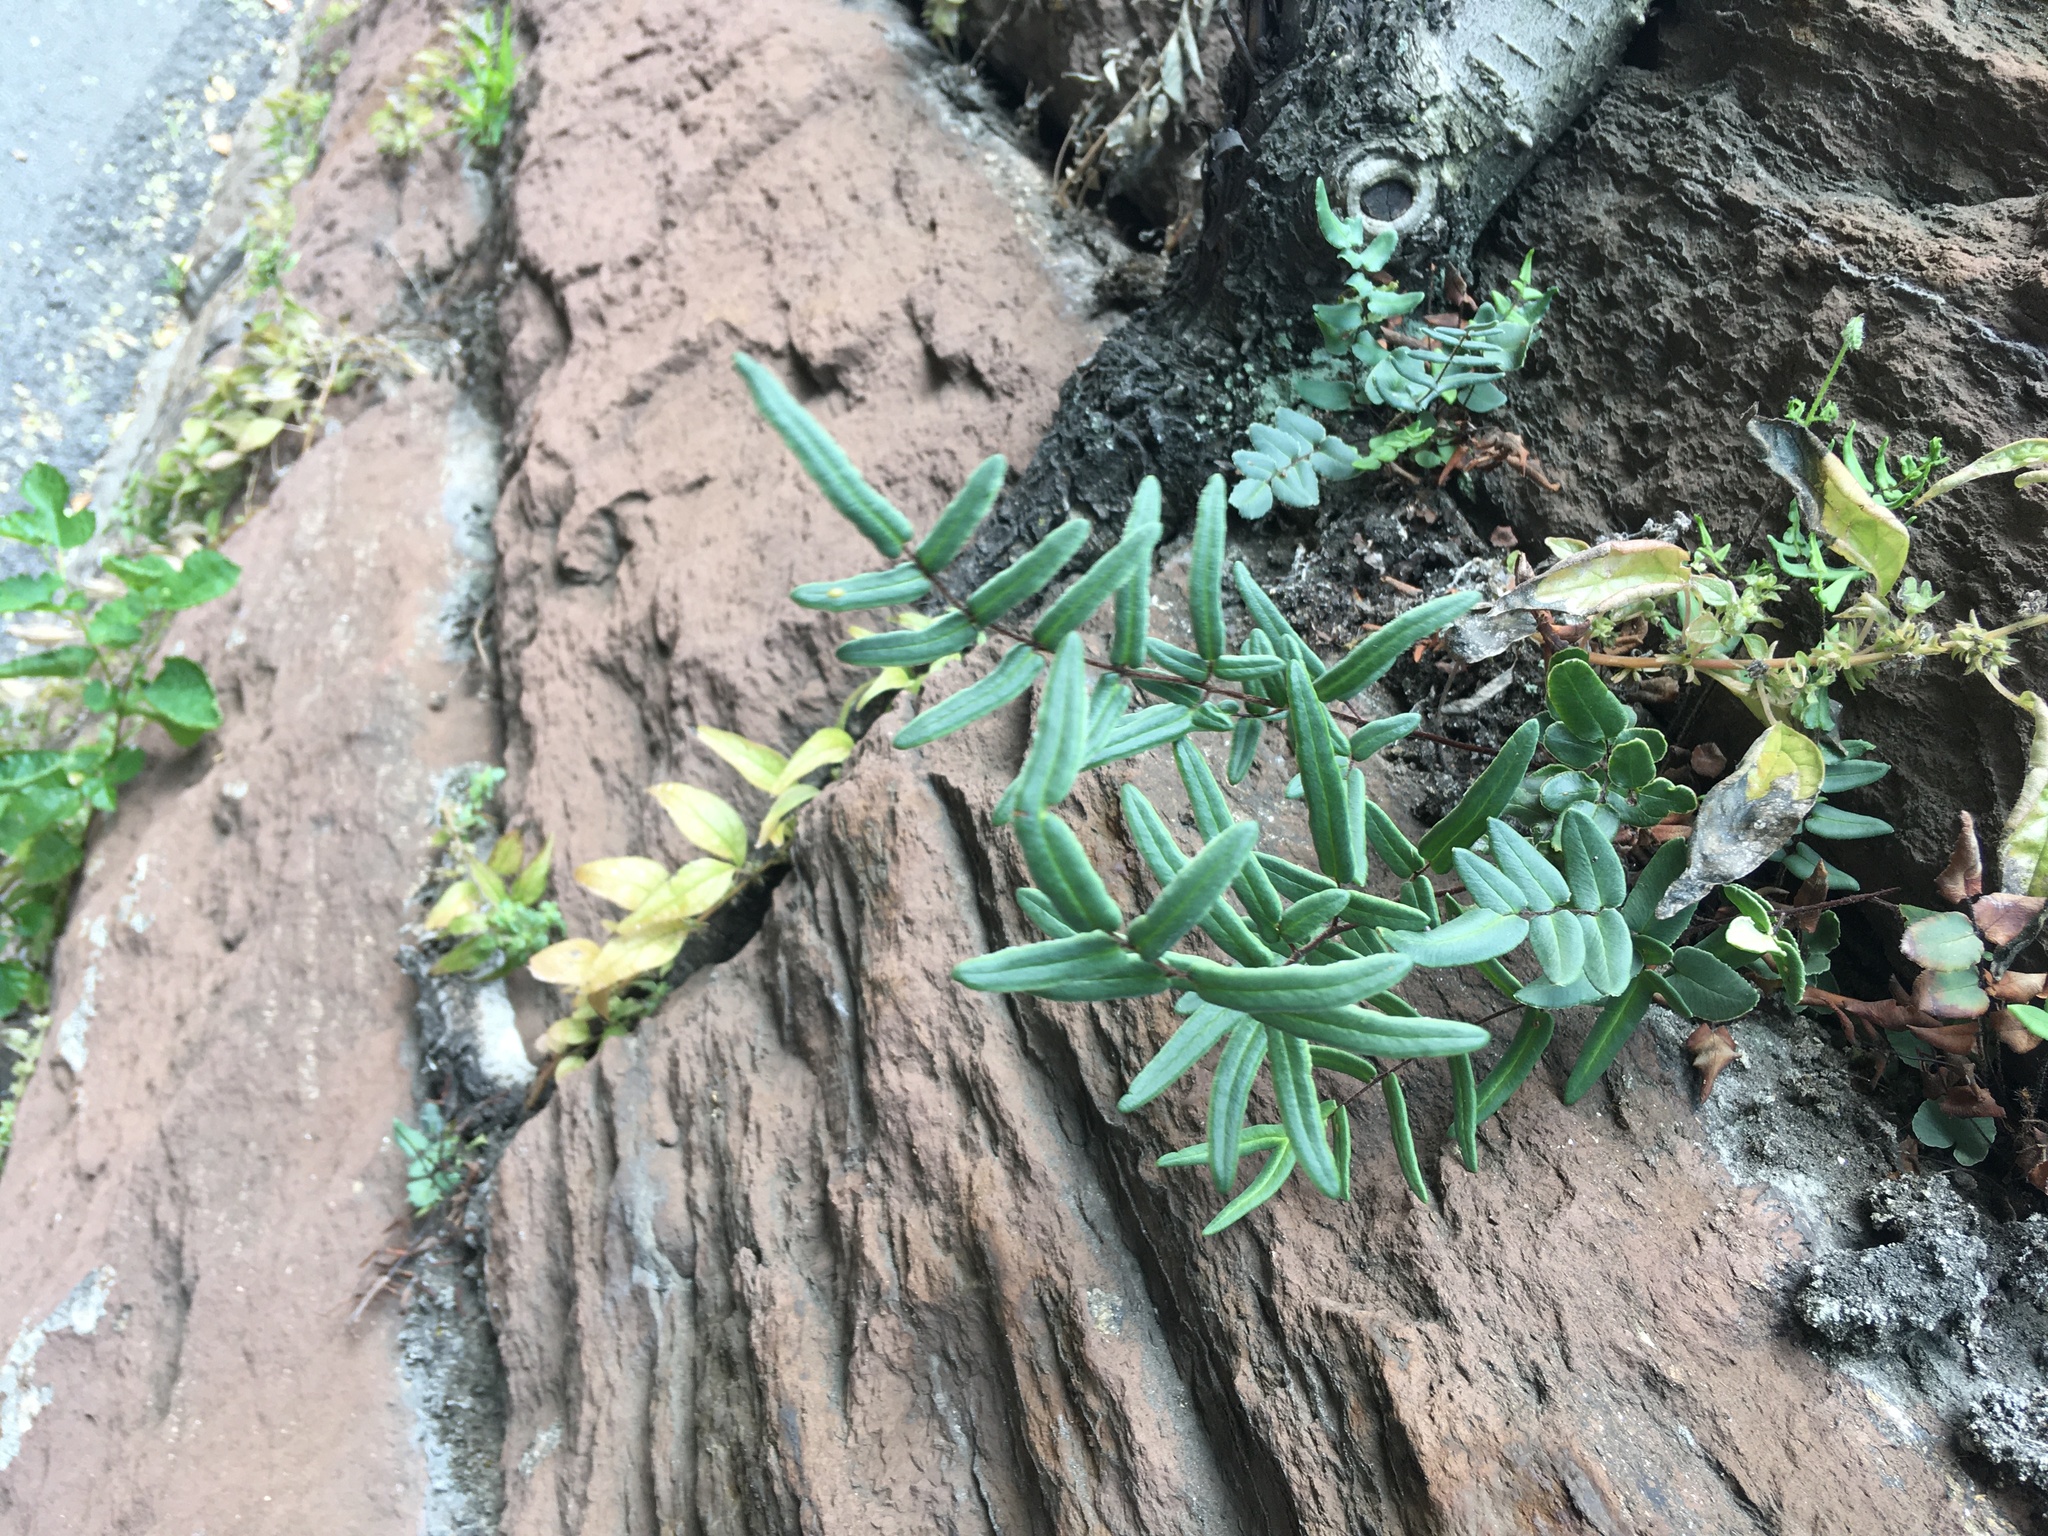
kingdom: Plantae
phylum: Tracheophyta
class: Polypodiopsida
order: Polypodiales
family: Pteridaceae
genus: Pellaea
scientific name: Pellaea atropurpurea
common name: Hairy cliffbrake
